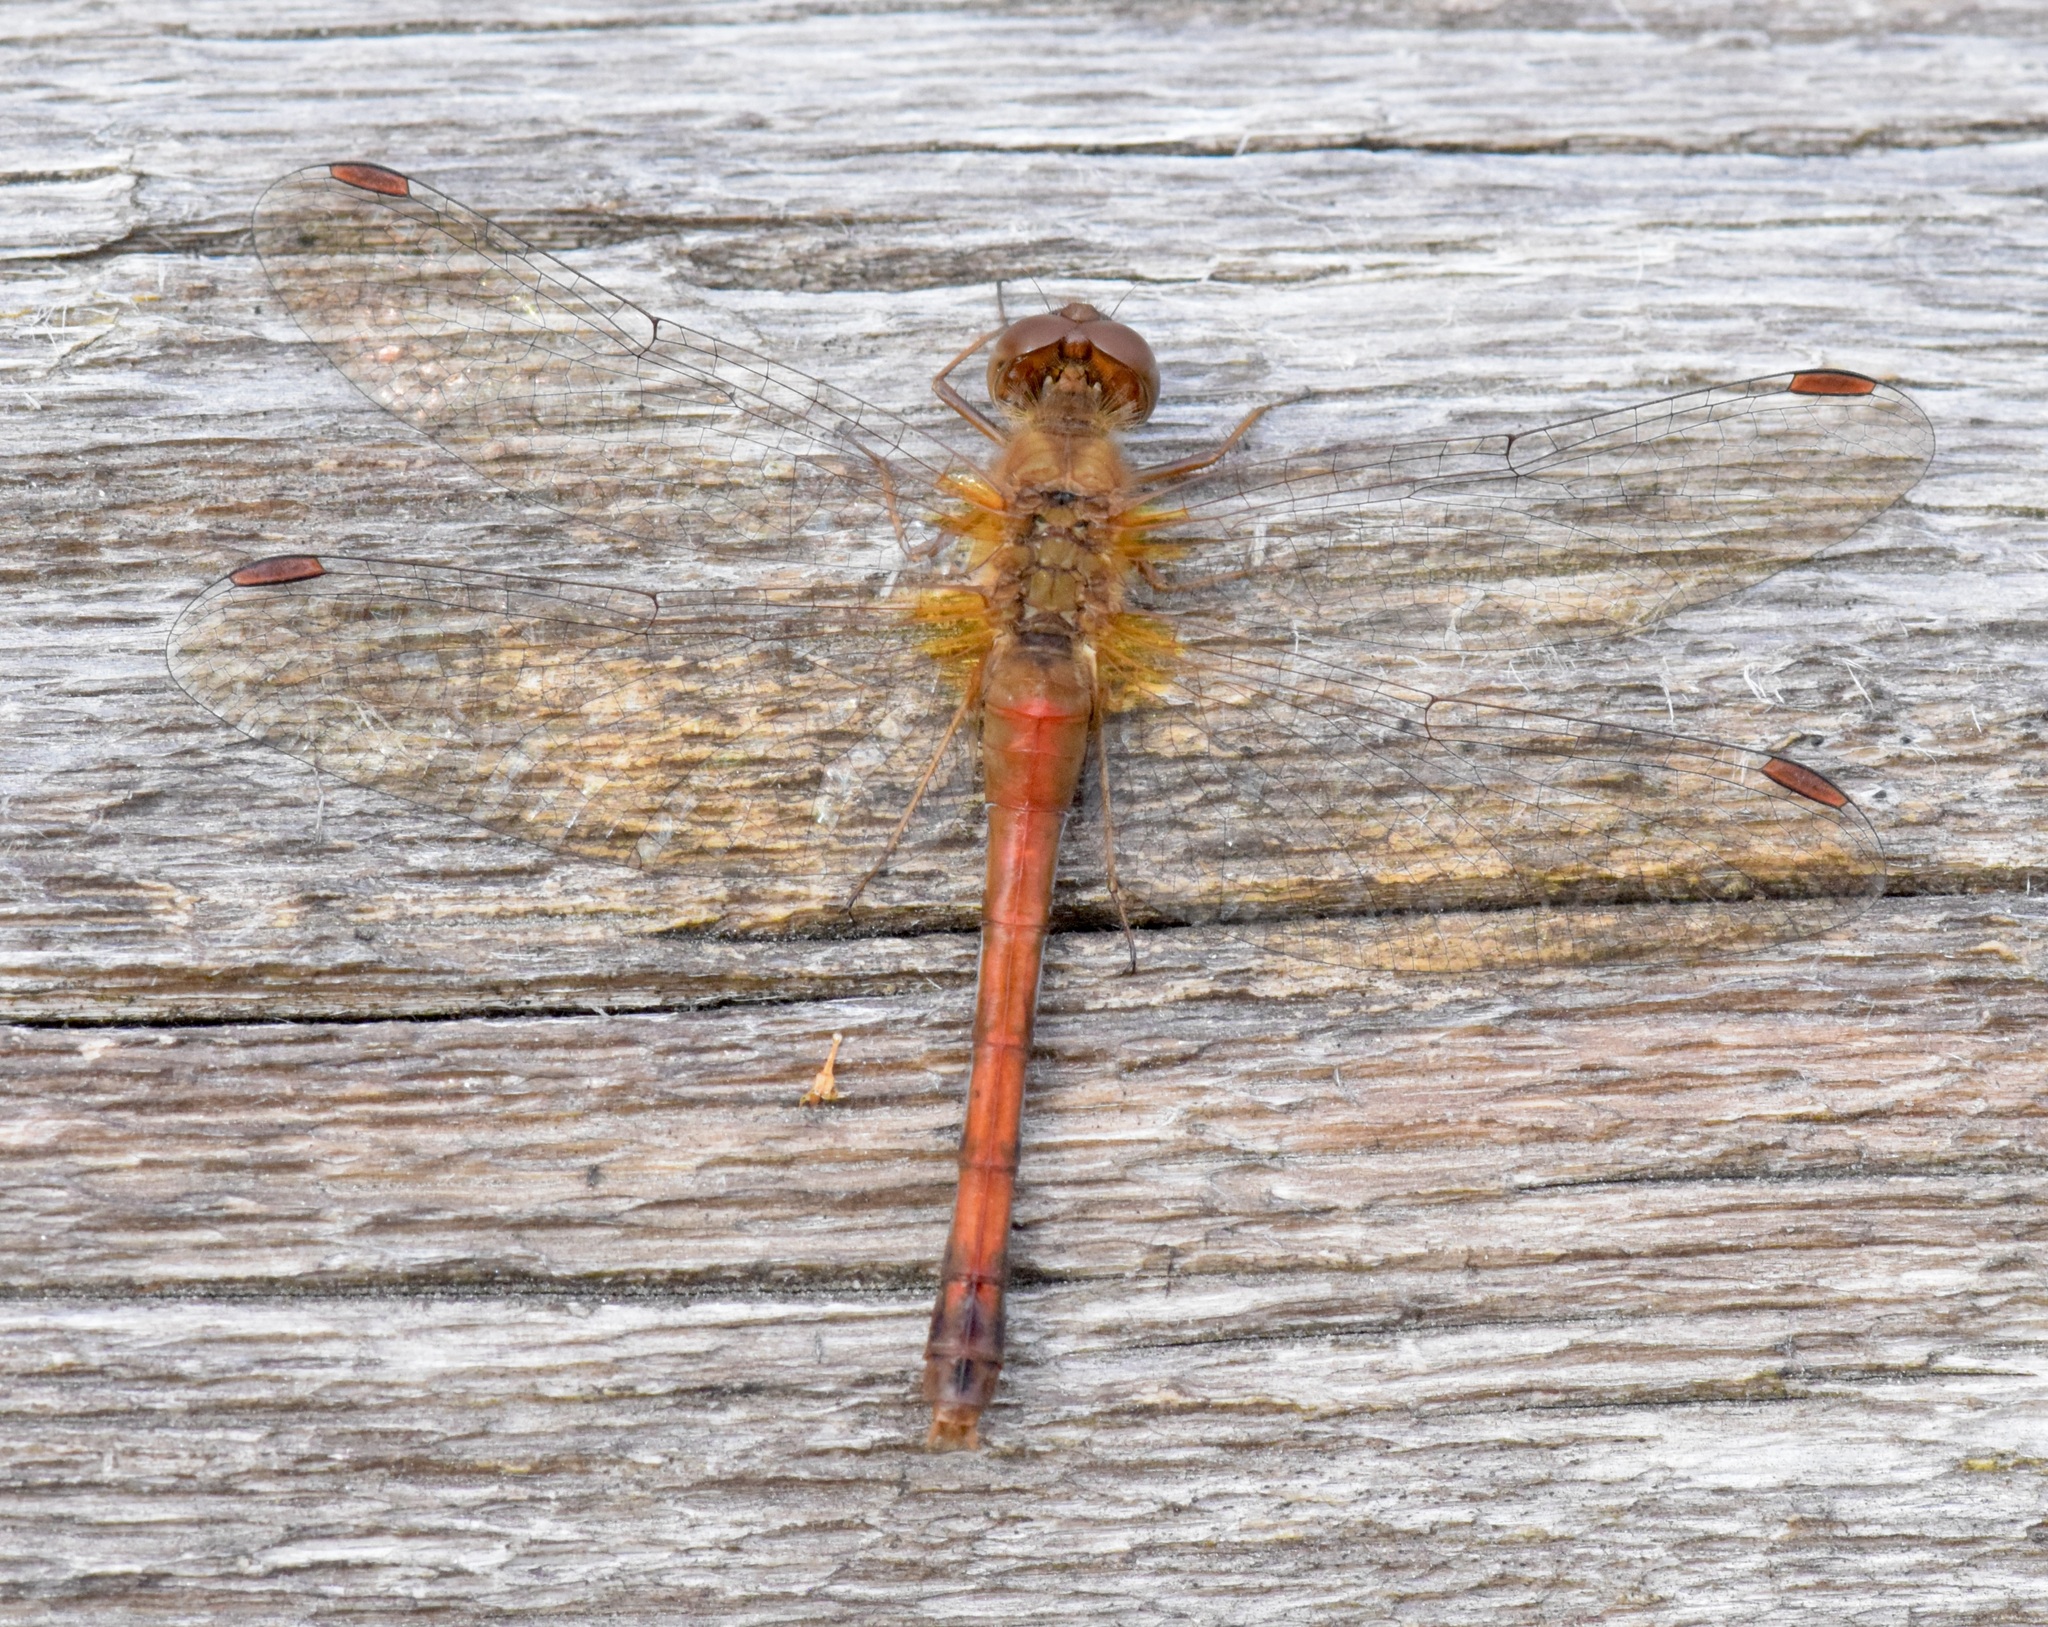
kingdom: Animalia
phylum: Arthropoda
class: Insecta
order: Odonata
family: Libellulidae
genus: Sympetrum
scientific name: Sympetrum vicinum
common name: Autumn meadowhawk
